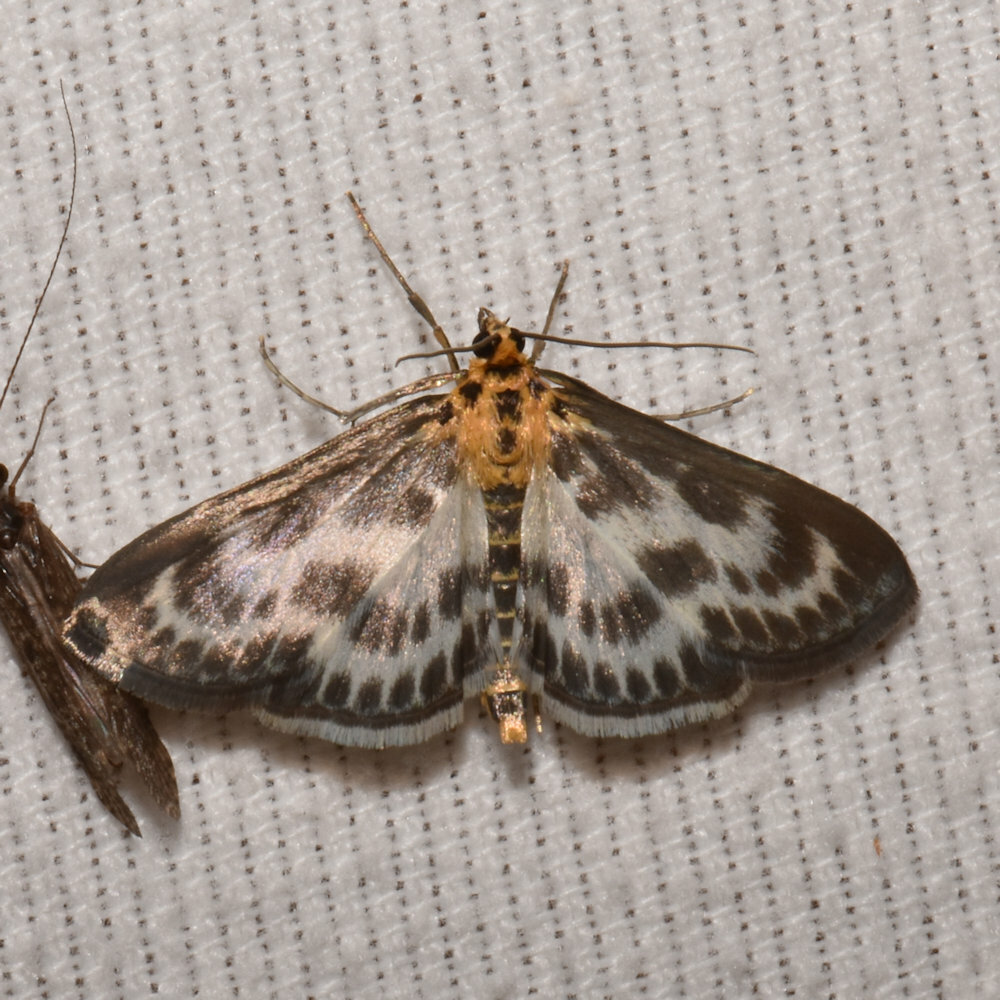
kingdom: Animalia
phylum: Arthropoda
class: Insecta
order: Lepidoptera
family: Crambidae
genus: Anania
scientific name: Anania hortulata
